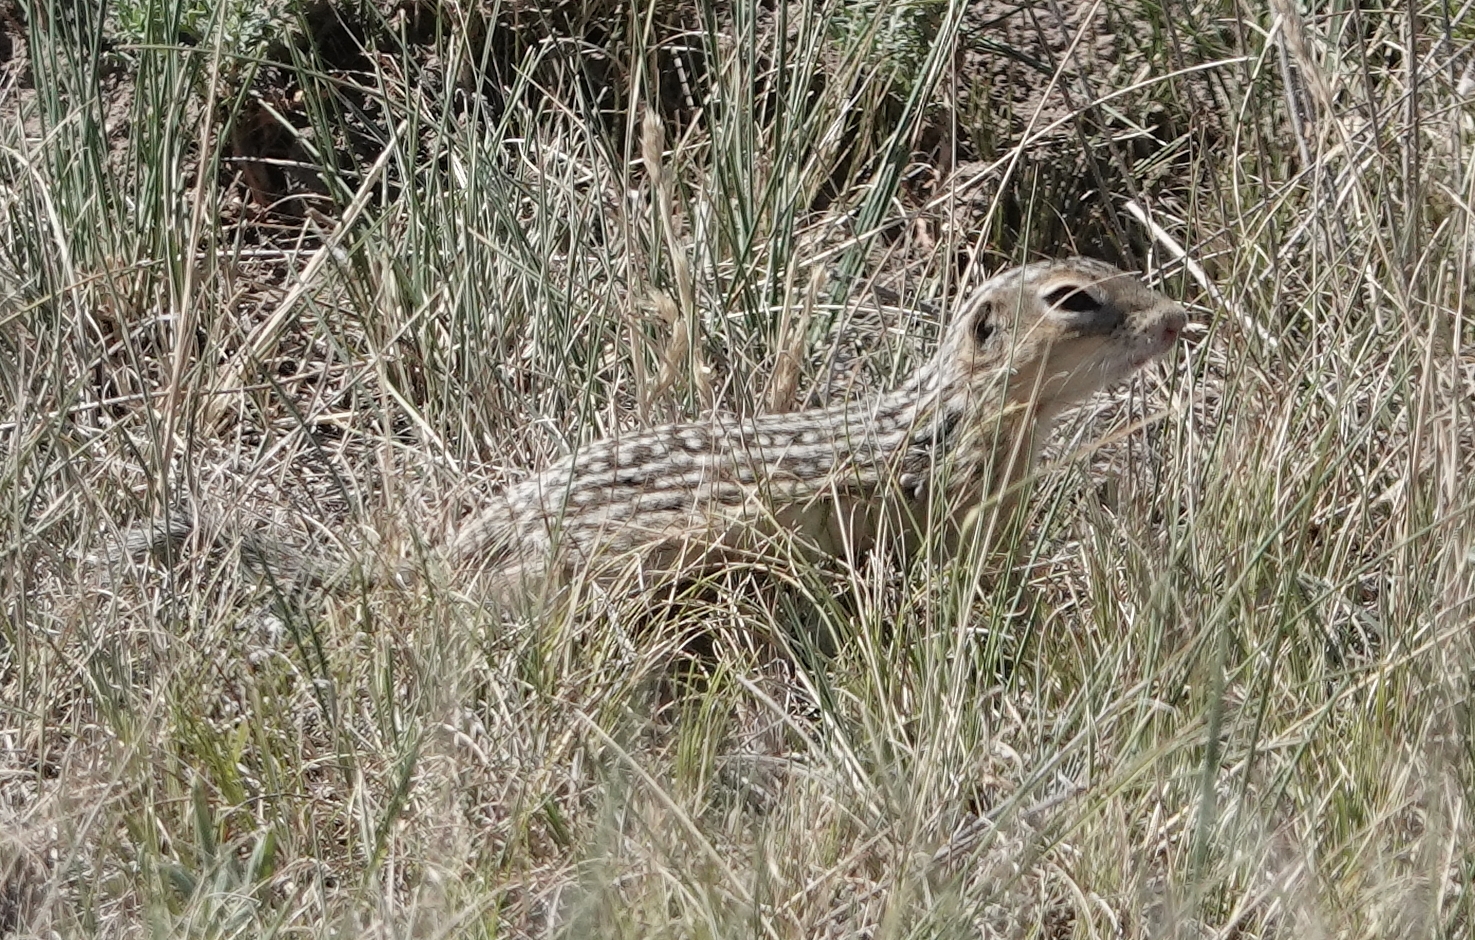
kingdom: Animalia
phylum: Chordata
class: Mammalia
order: Rodentia
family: Sciuridae
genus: Ictidomys
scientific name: Ictidomys tridecemlineatus
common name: Thirteen-lined ground squirrel
